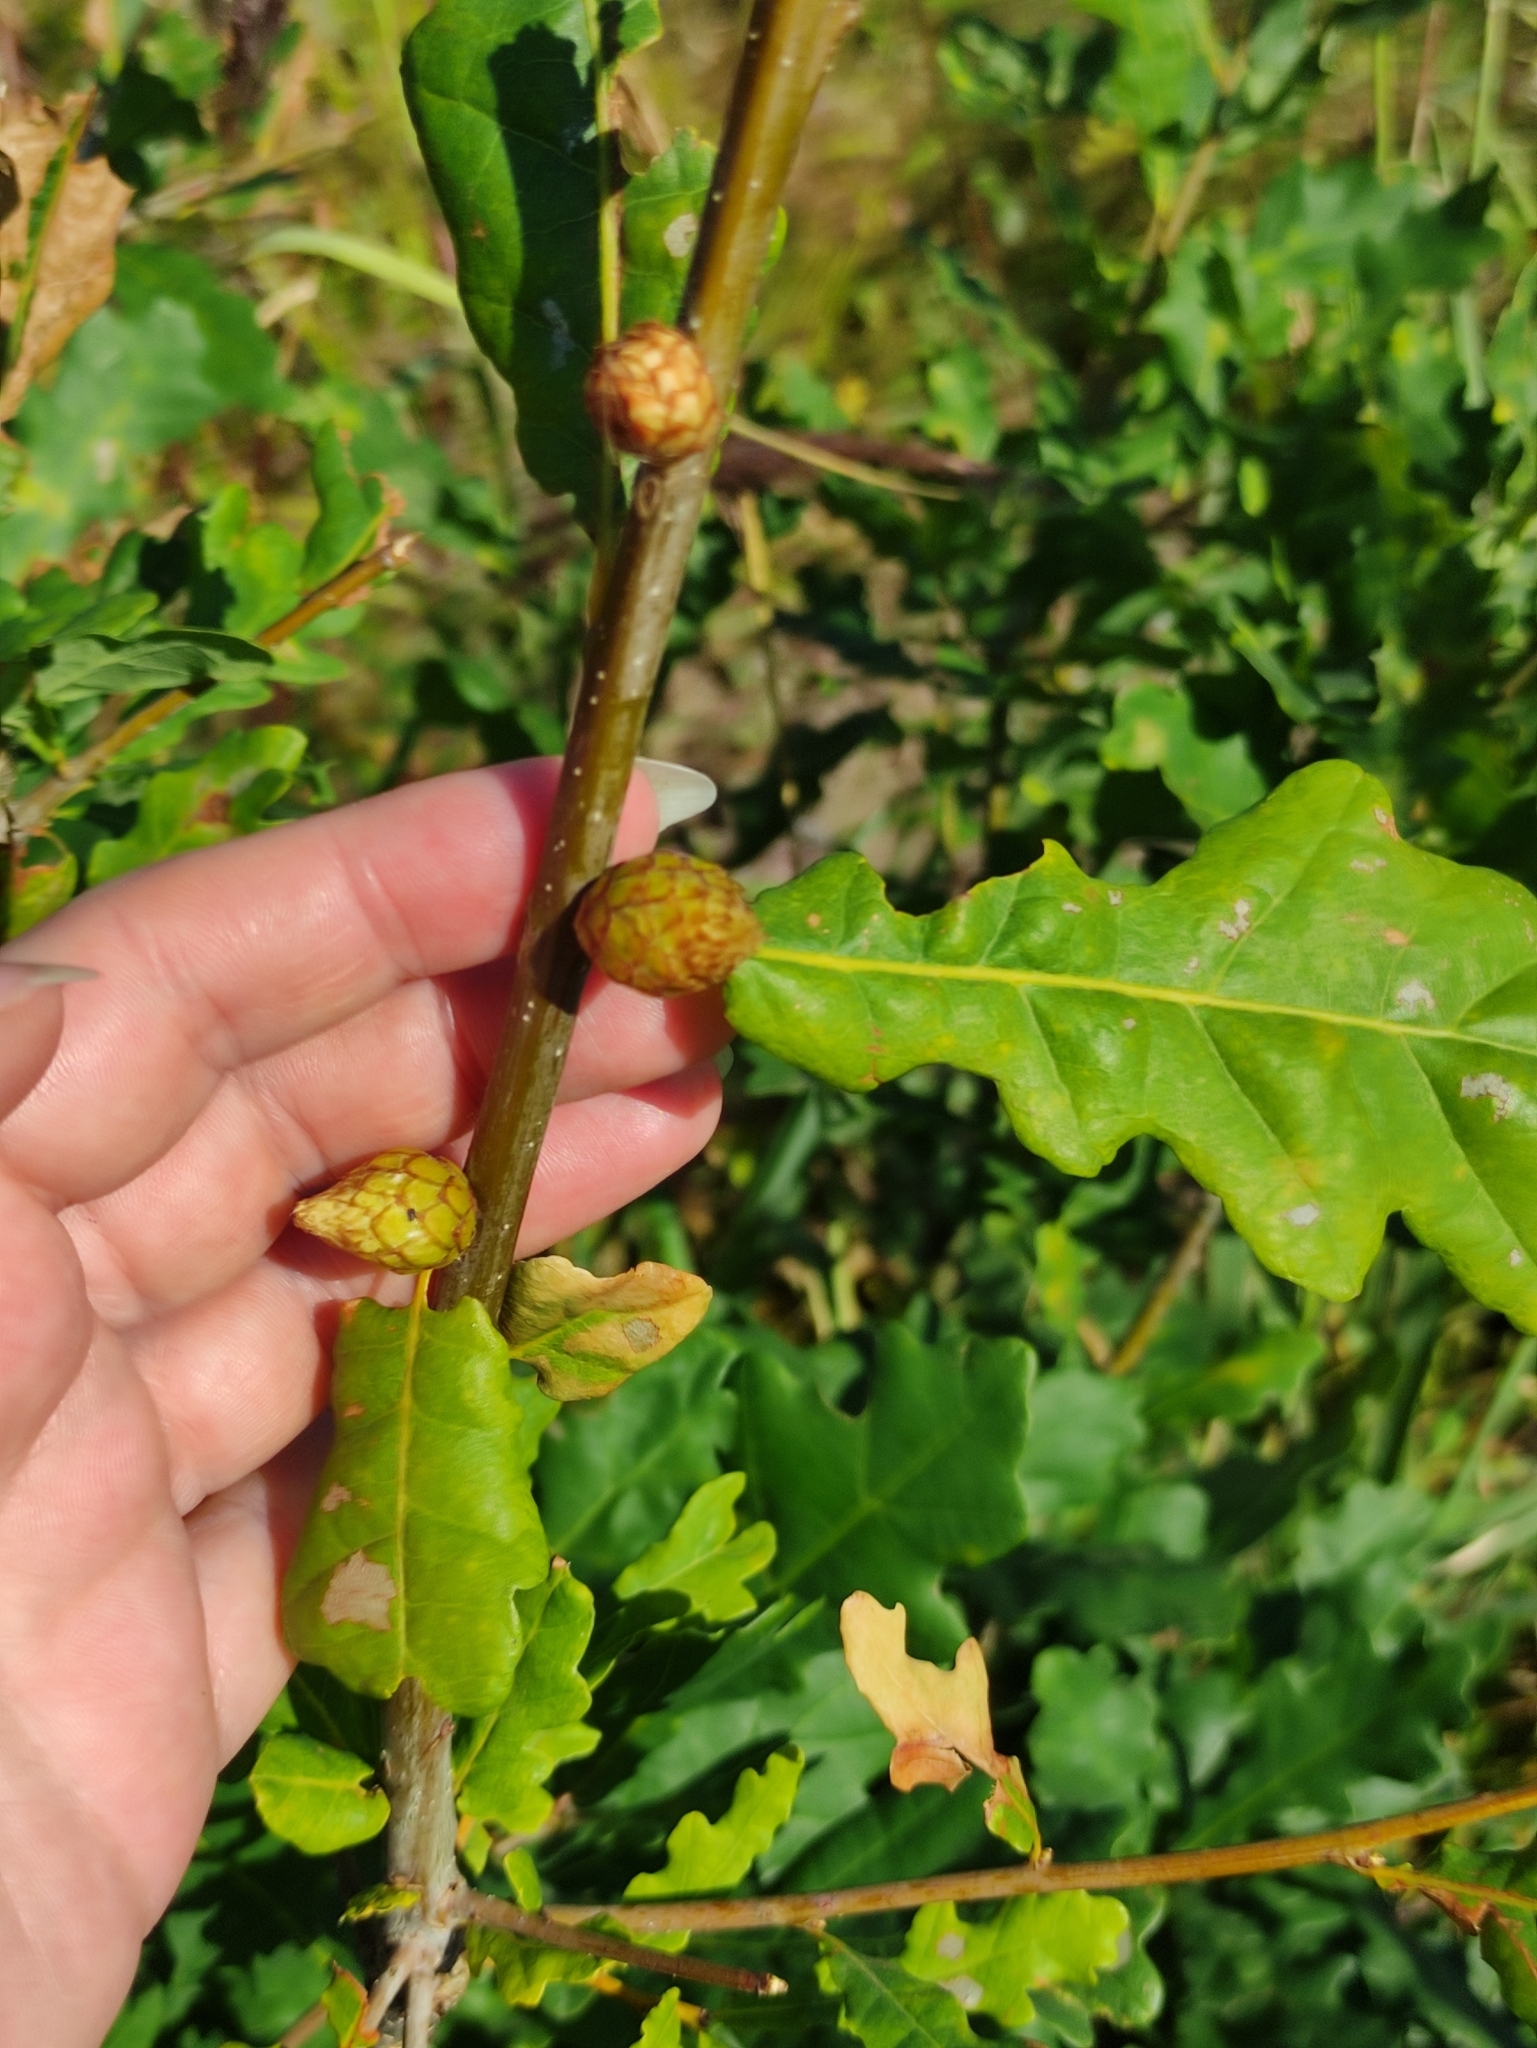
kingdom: Animalia
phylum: Arthropoda
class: Insecta
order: Hymenoptera
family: Cynipidae
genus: Andricus
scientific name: Andricus foecundatrix
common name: Artichoke gall
